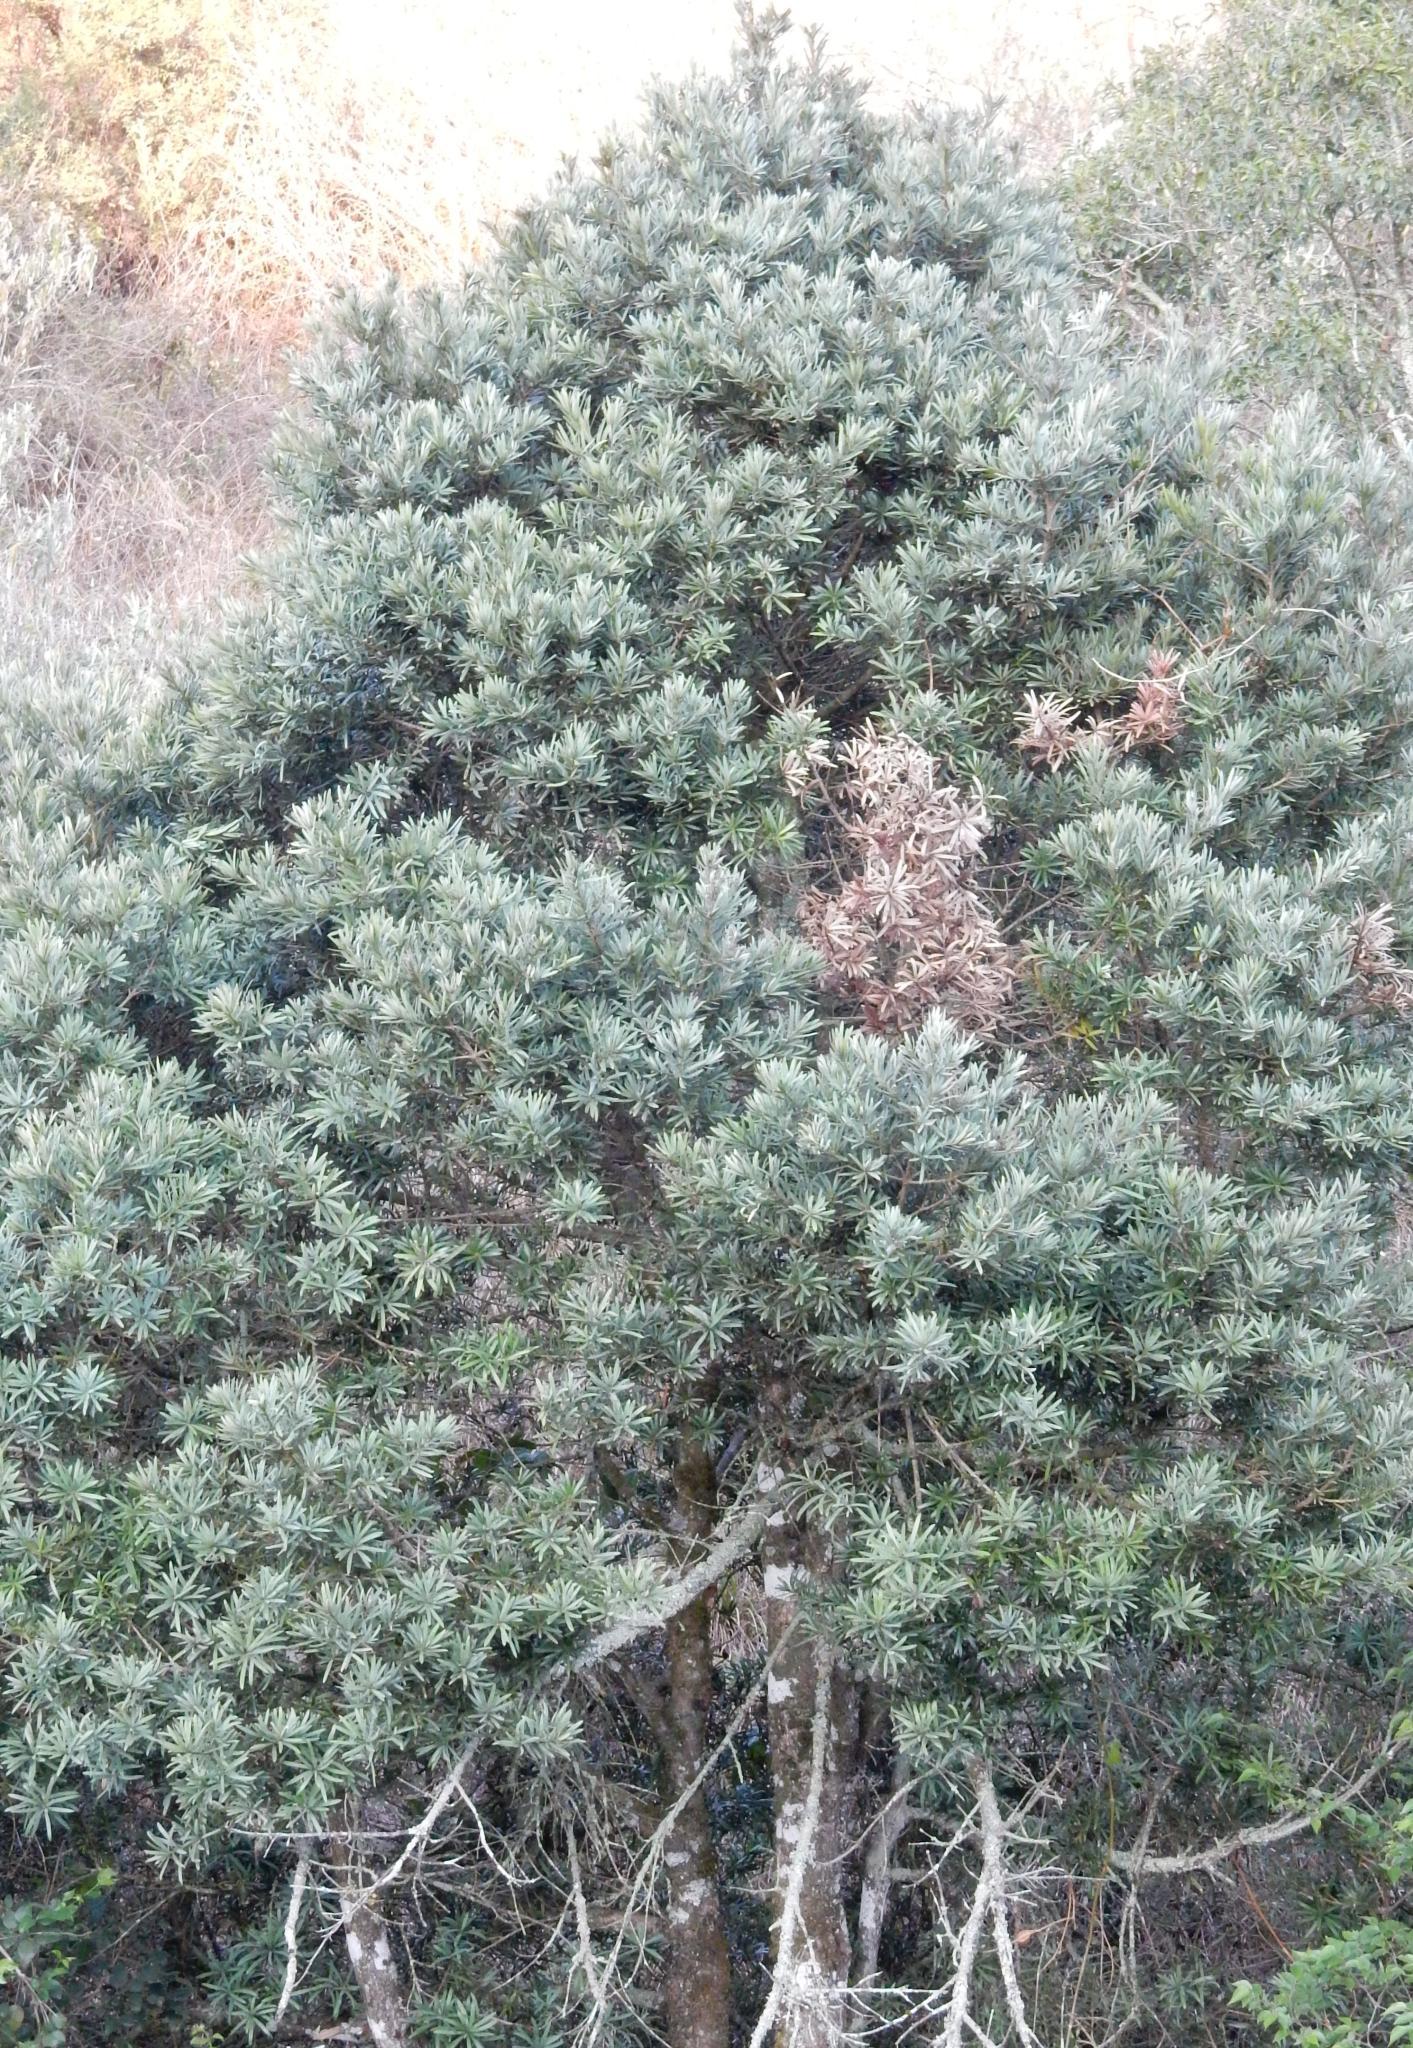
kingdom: Plantae
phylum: Tracheophyta
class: Pinopsida
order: Pinales
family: Podocarpaceae
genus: Podocarpus
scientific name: Podocarpus latifolius
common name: True yellowwood
